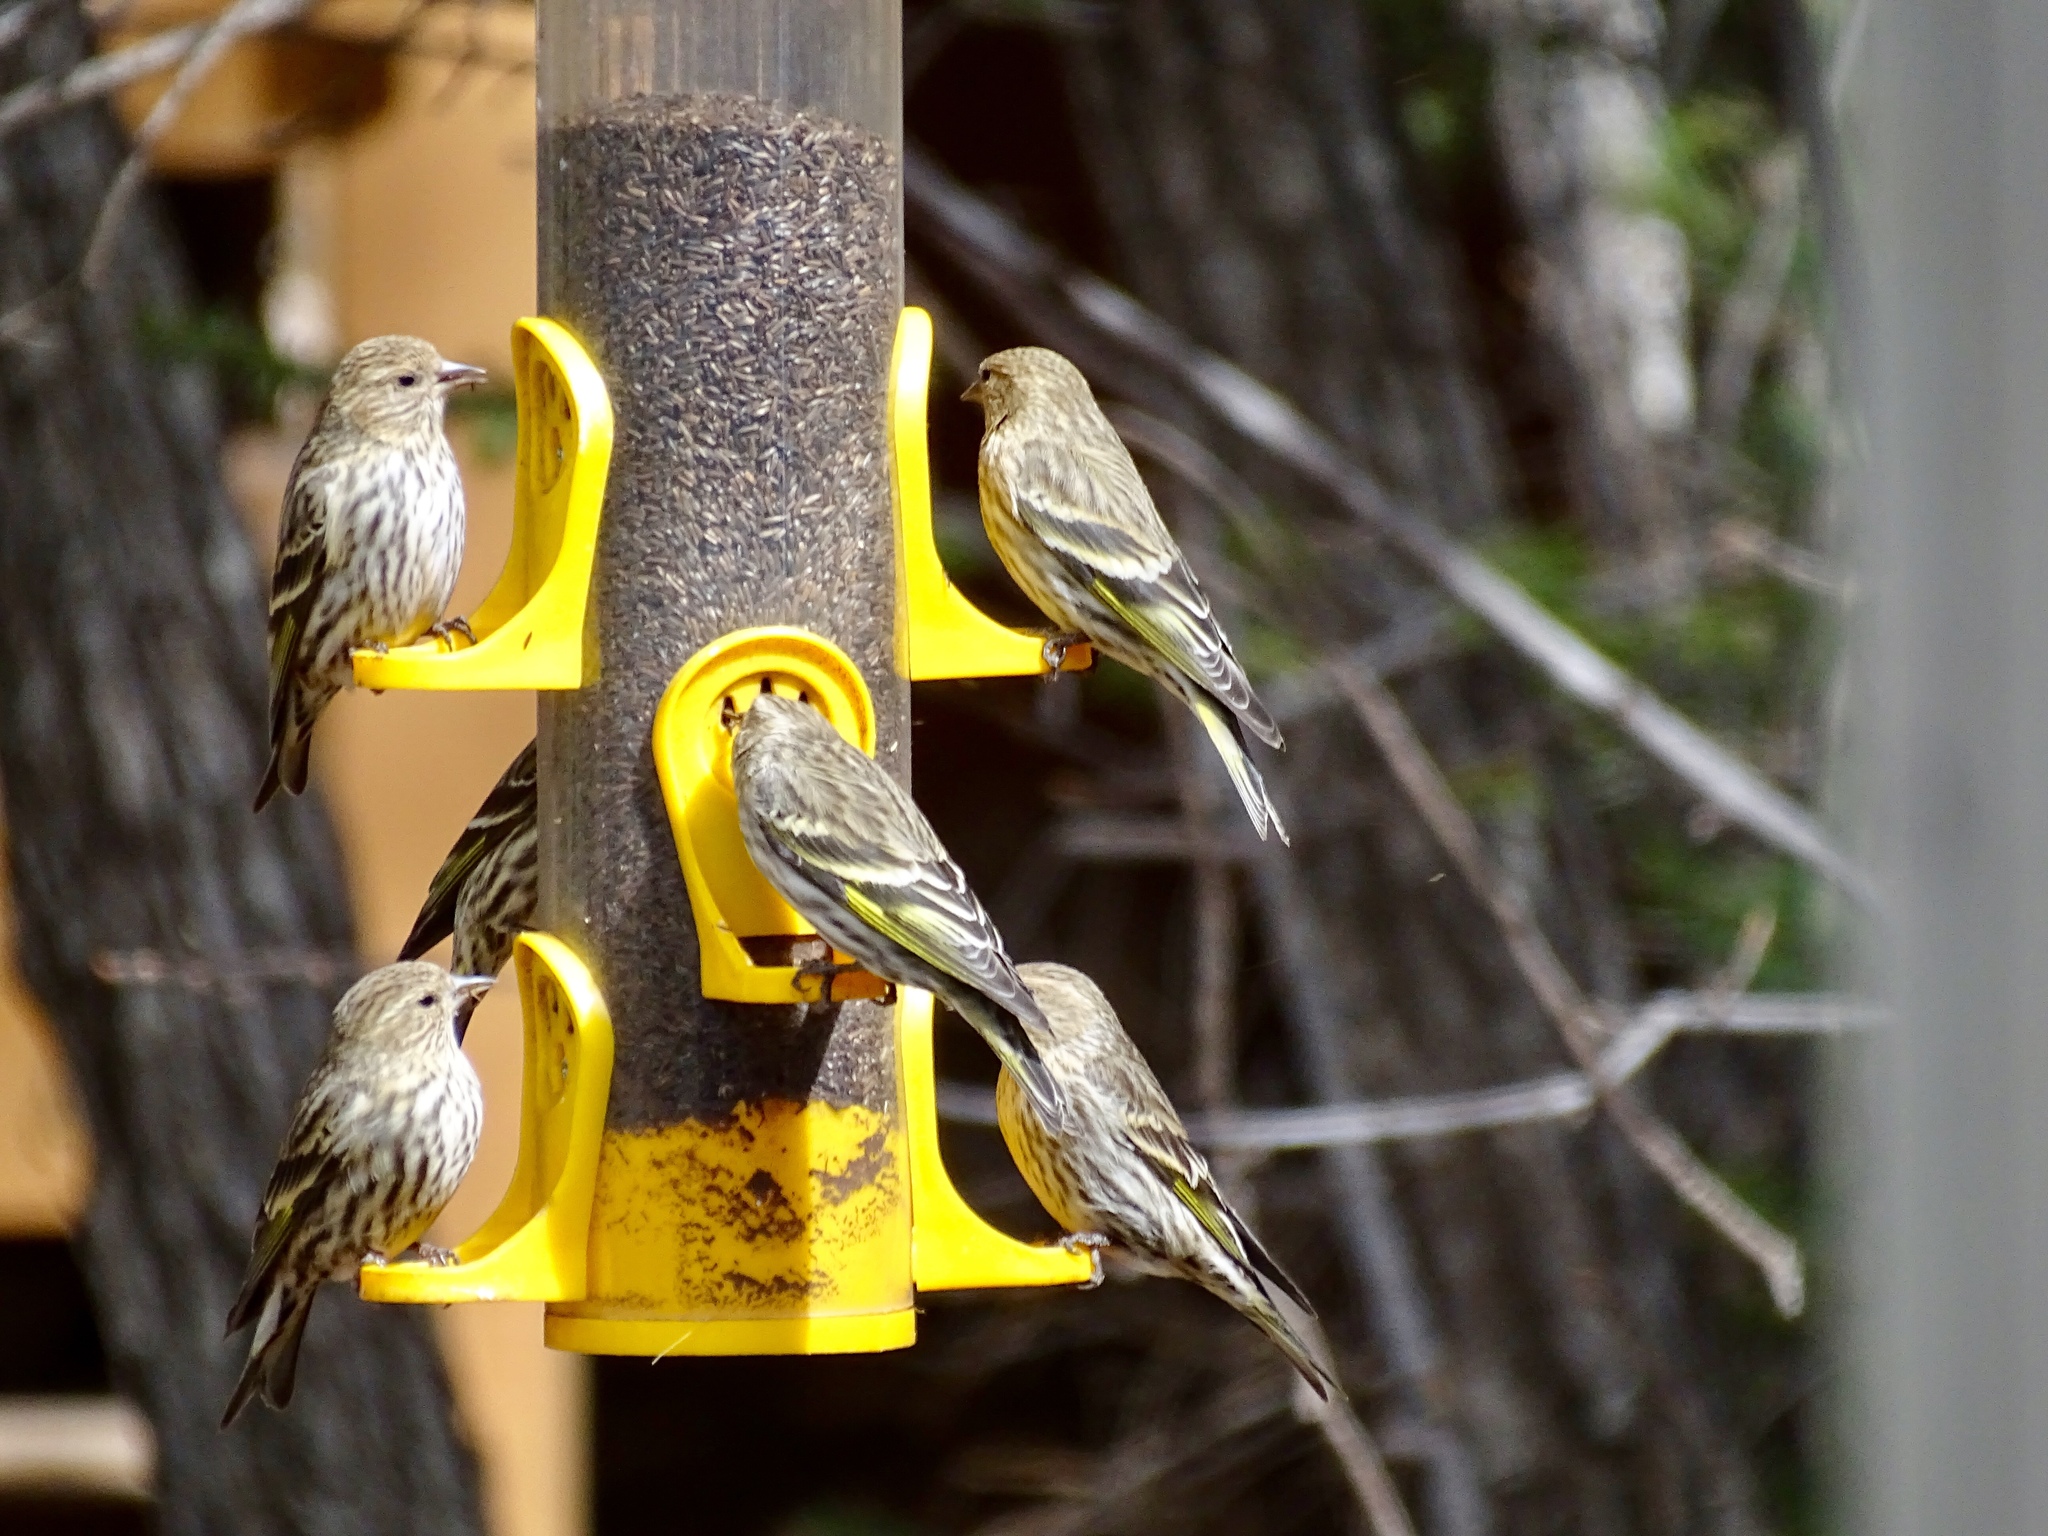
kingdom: Animalia
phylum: Chordata
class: Aves
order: Passeriformes
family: Fringillidae
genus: Spinus
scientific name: Spinus pinus
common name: Pine siskin
